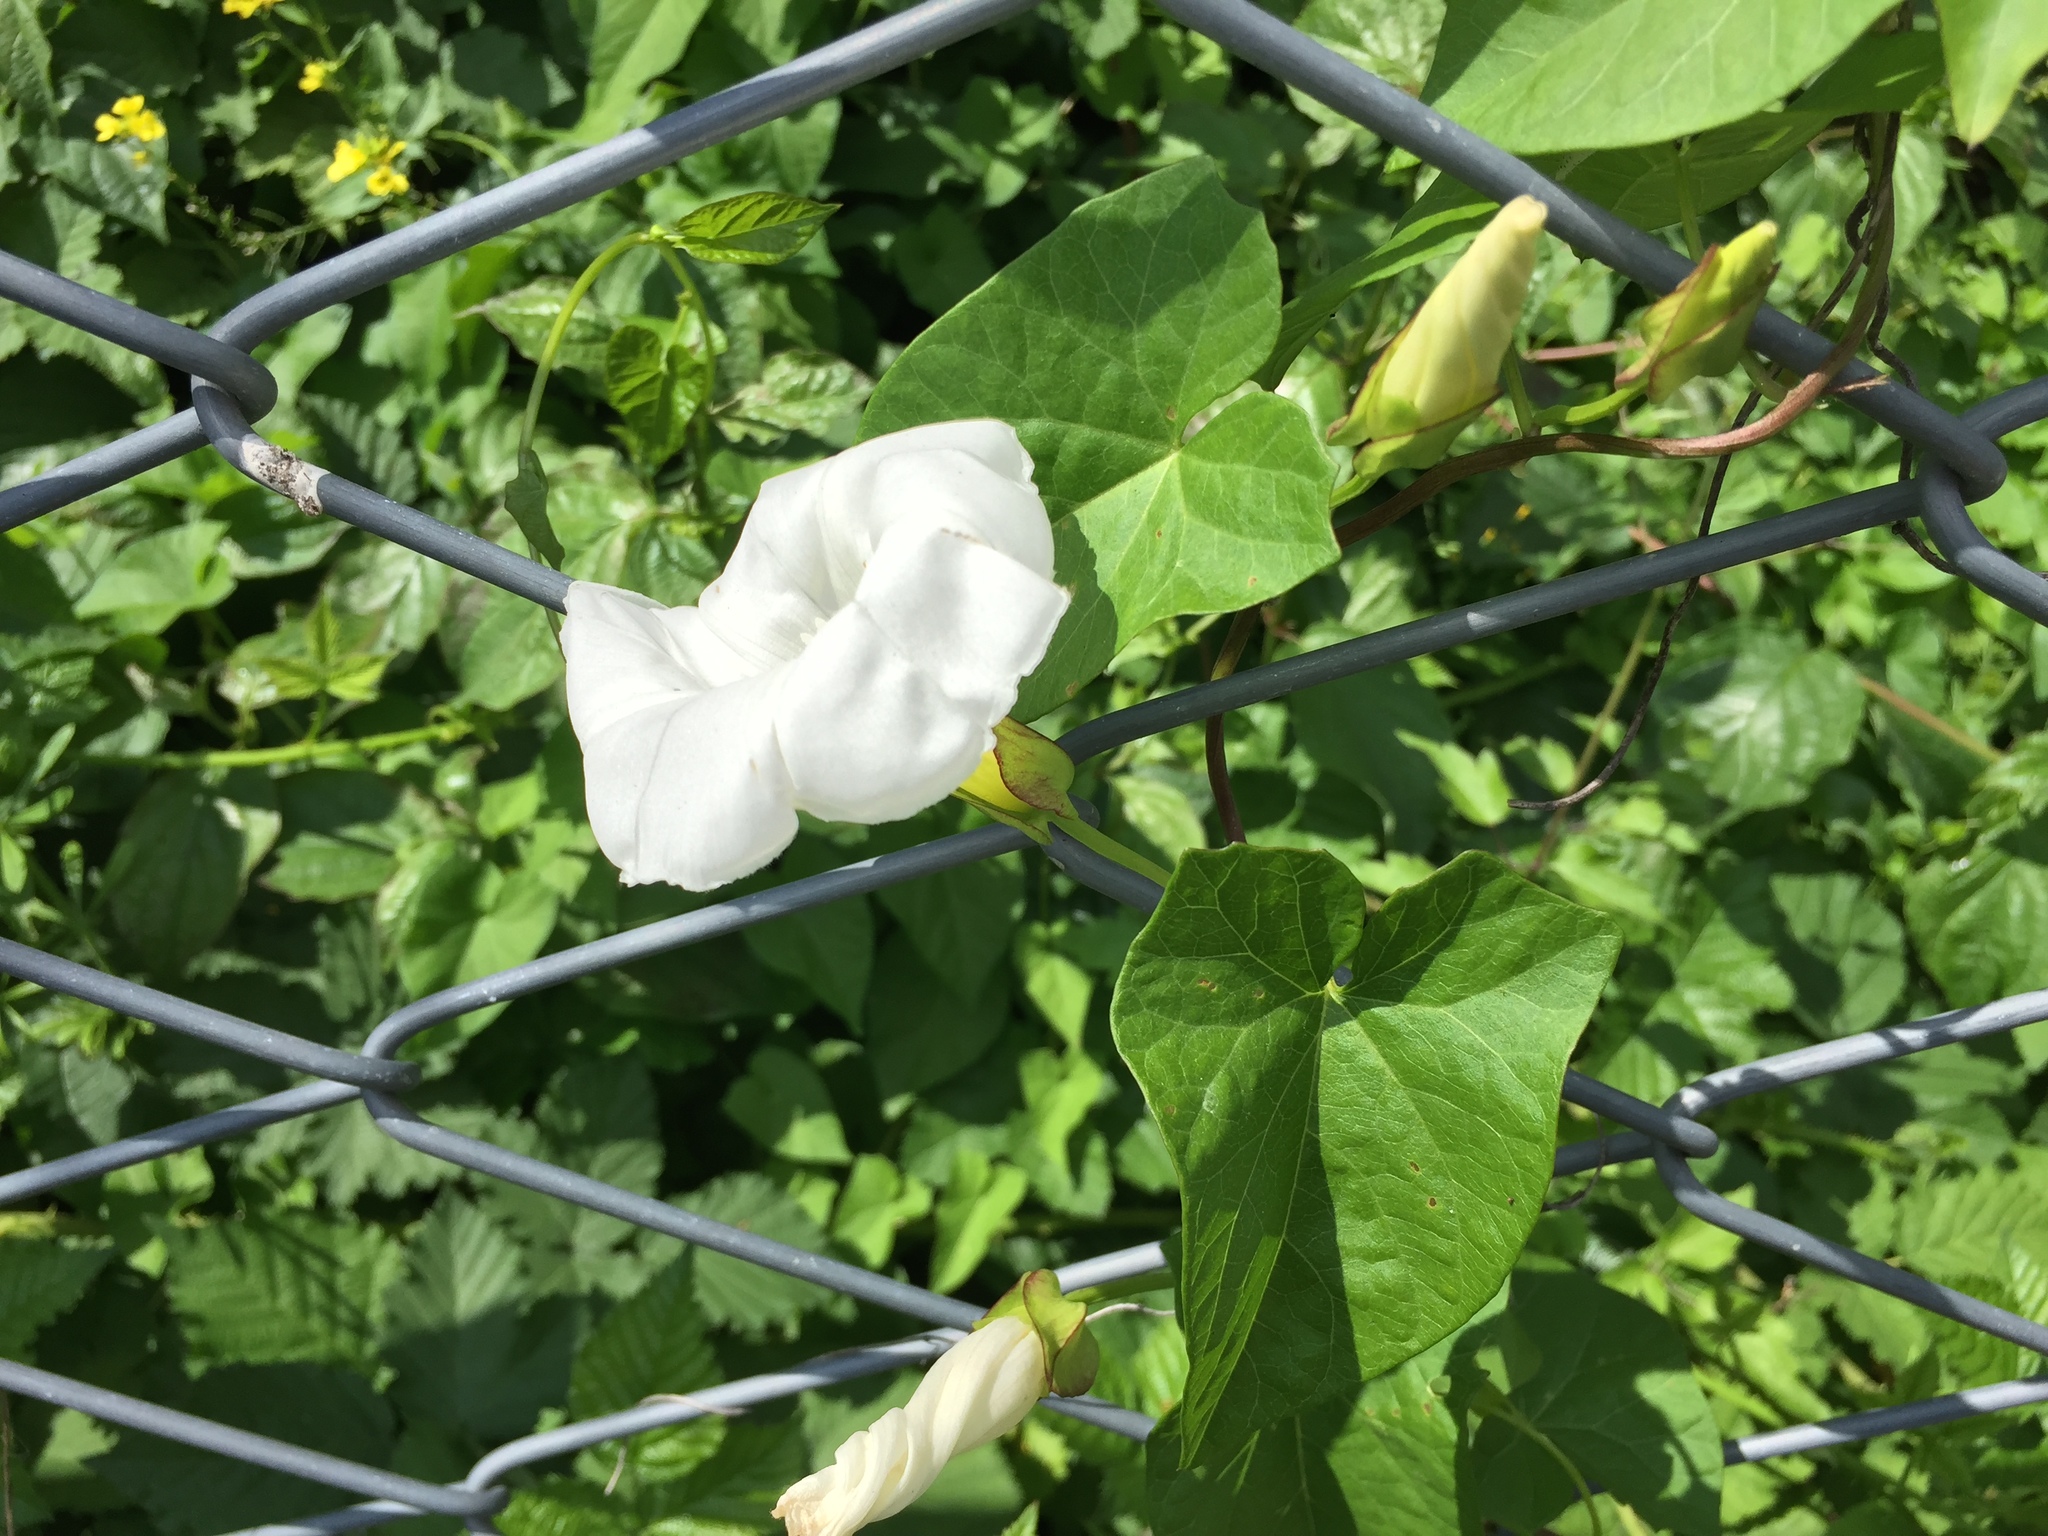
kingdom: Plantae
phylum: Tracheophyta
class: Magnoliopsida
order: Solanales
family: Convolvulaceae
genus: Calystegia
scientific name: Calystegia sepium
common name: Hedge bindweed
